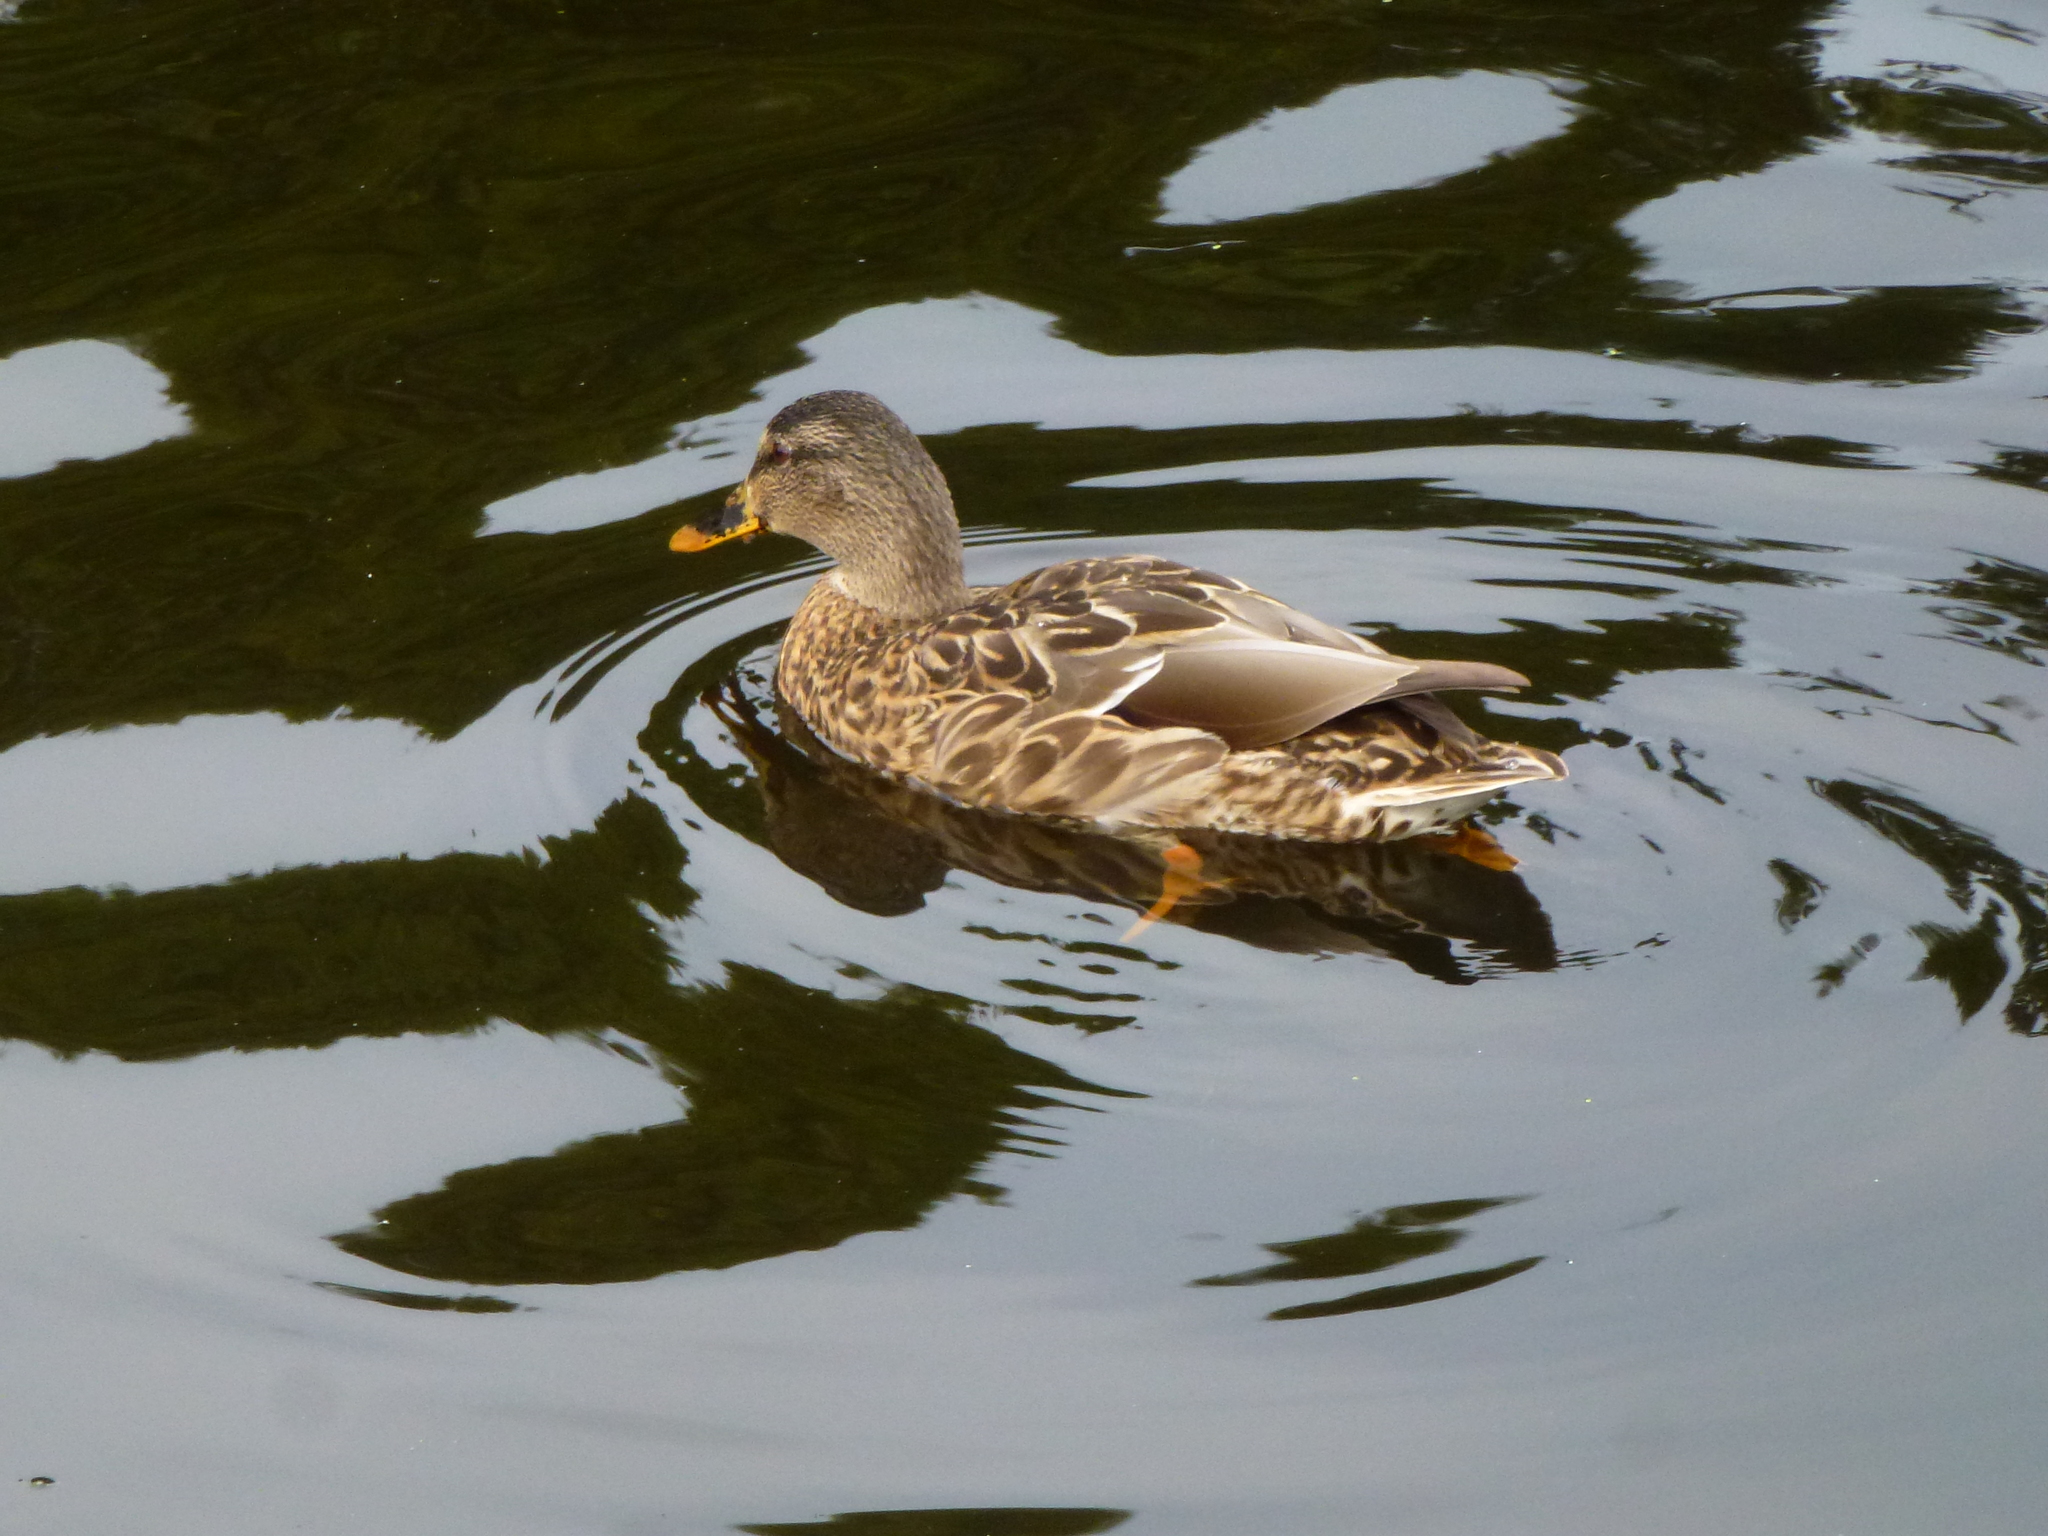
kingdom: Animalia
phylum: Chordata
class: Aves
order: Anseriformes
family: Anatidae
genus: Anas
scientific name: Anas platyrhynchos
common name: Mallard
